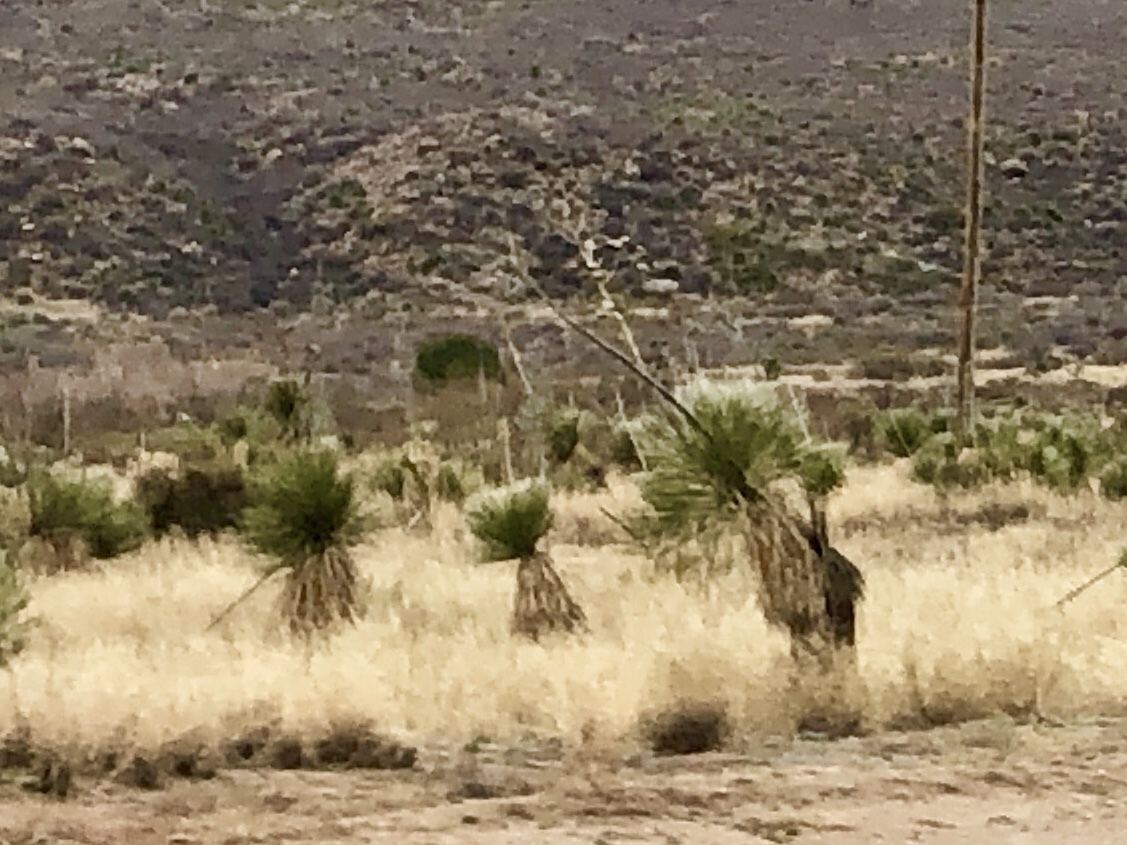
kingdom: Plantae
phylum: Tracheophyta
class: Liliopsida
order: Asparagales
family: Asparagaceae
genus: Yucca
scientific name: Yucca elata
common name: Palmella
